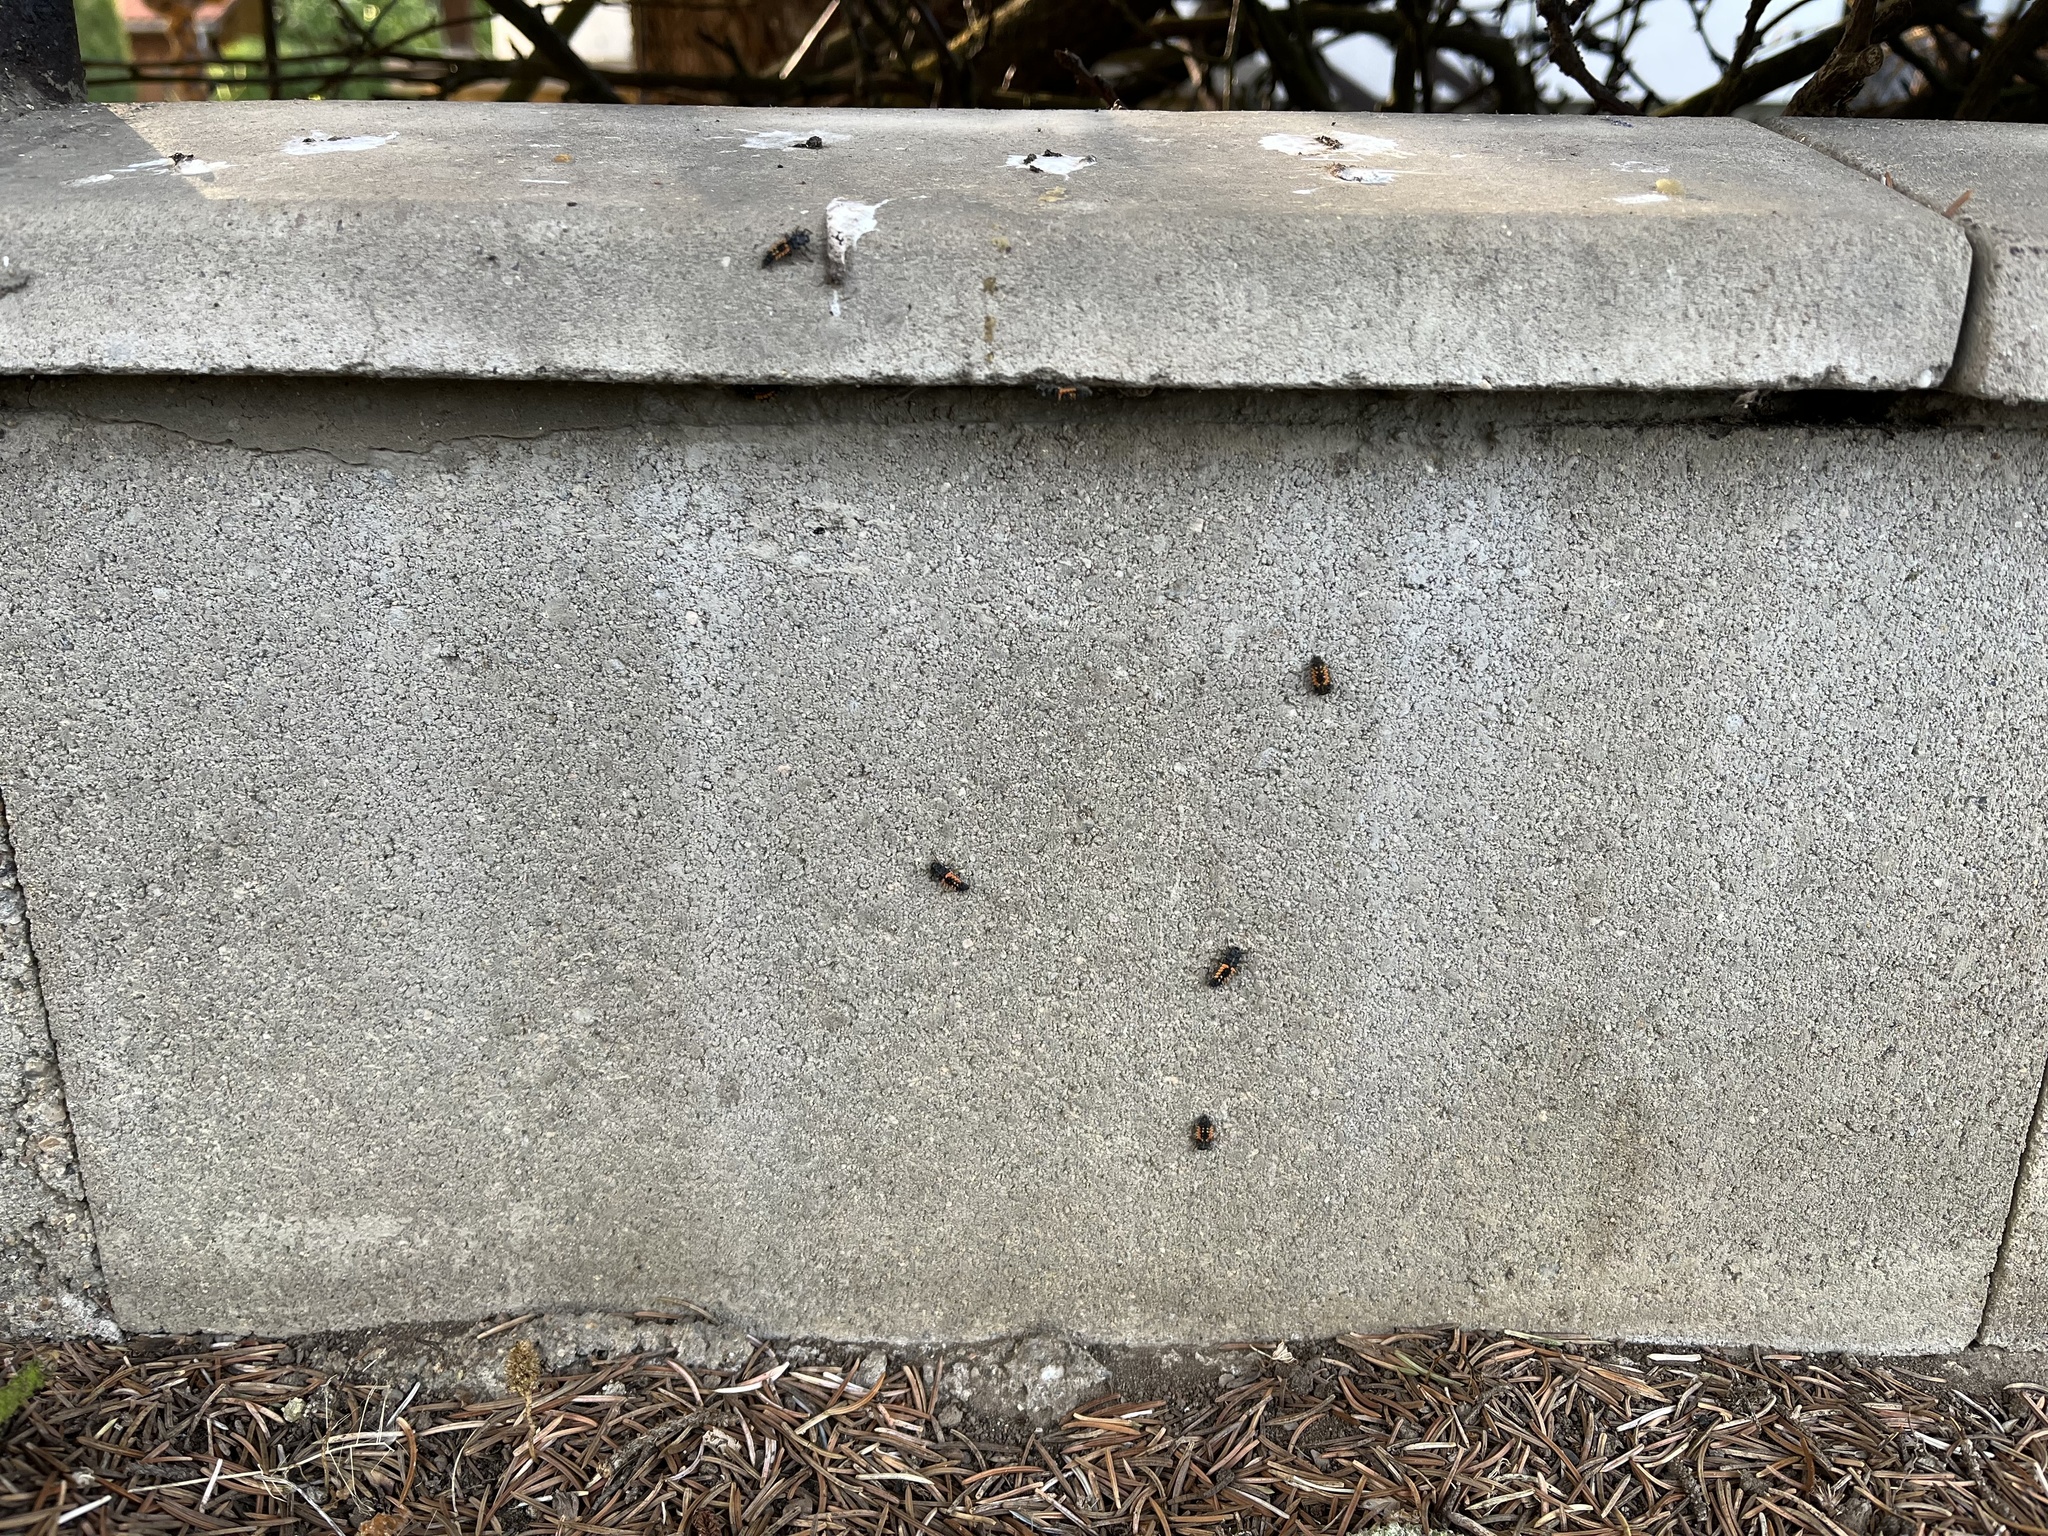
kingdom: Animalia
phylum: Arthropoda
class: Insecta
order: Coleoptera
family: Coccinellidae
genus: Harmonia
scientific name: Harmonia axyridis
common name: Harlequin ladybird
